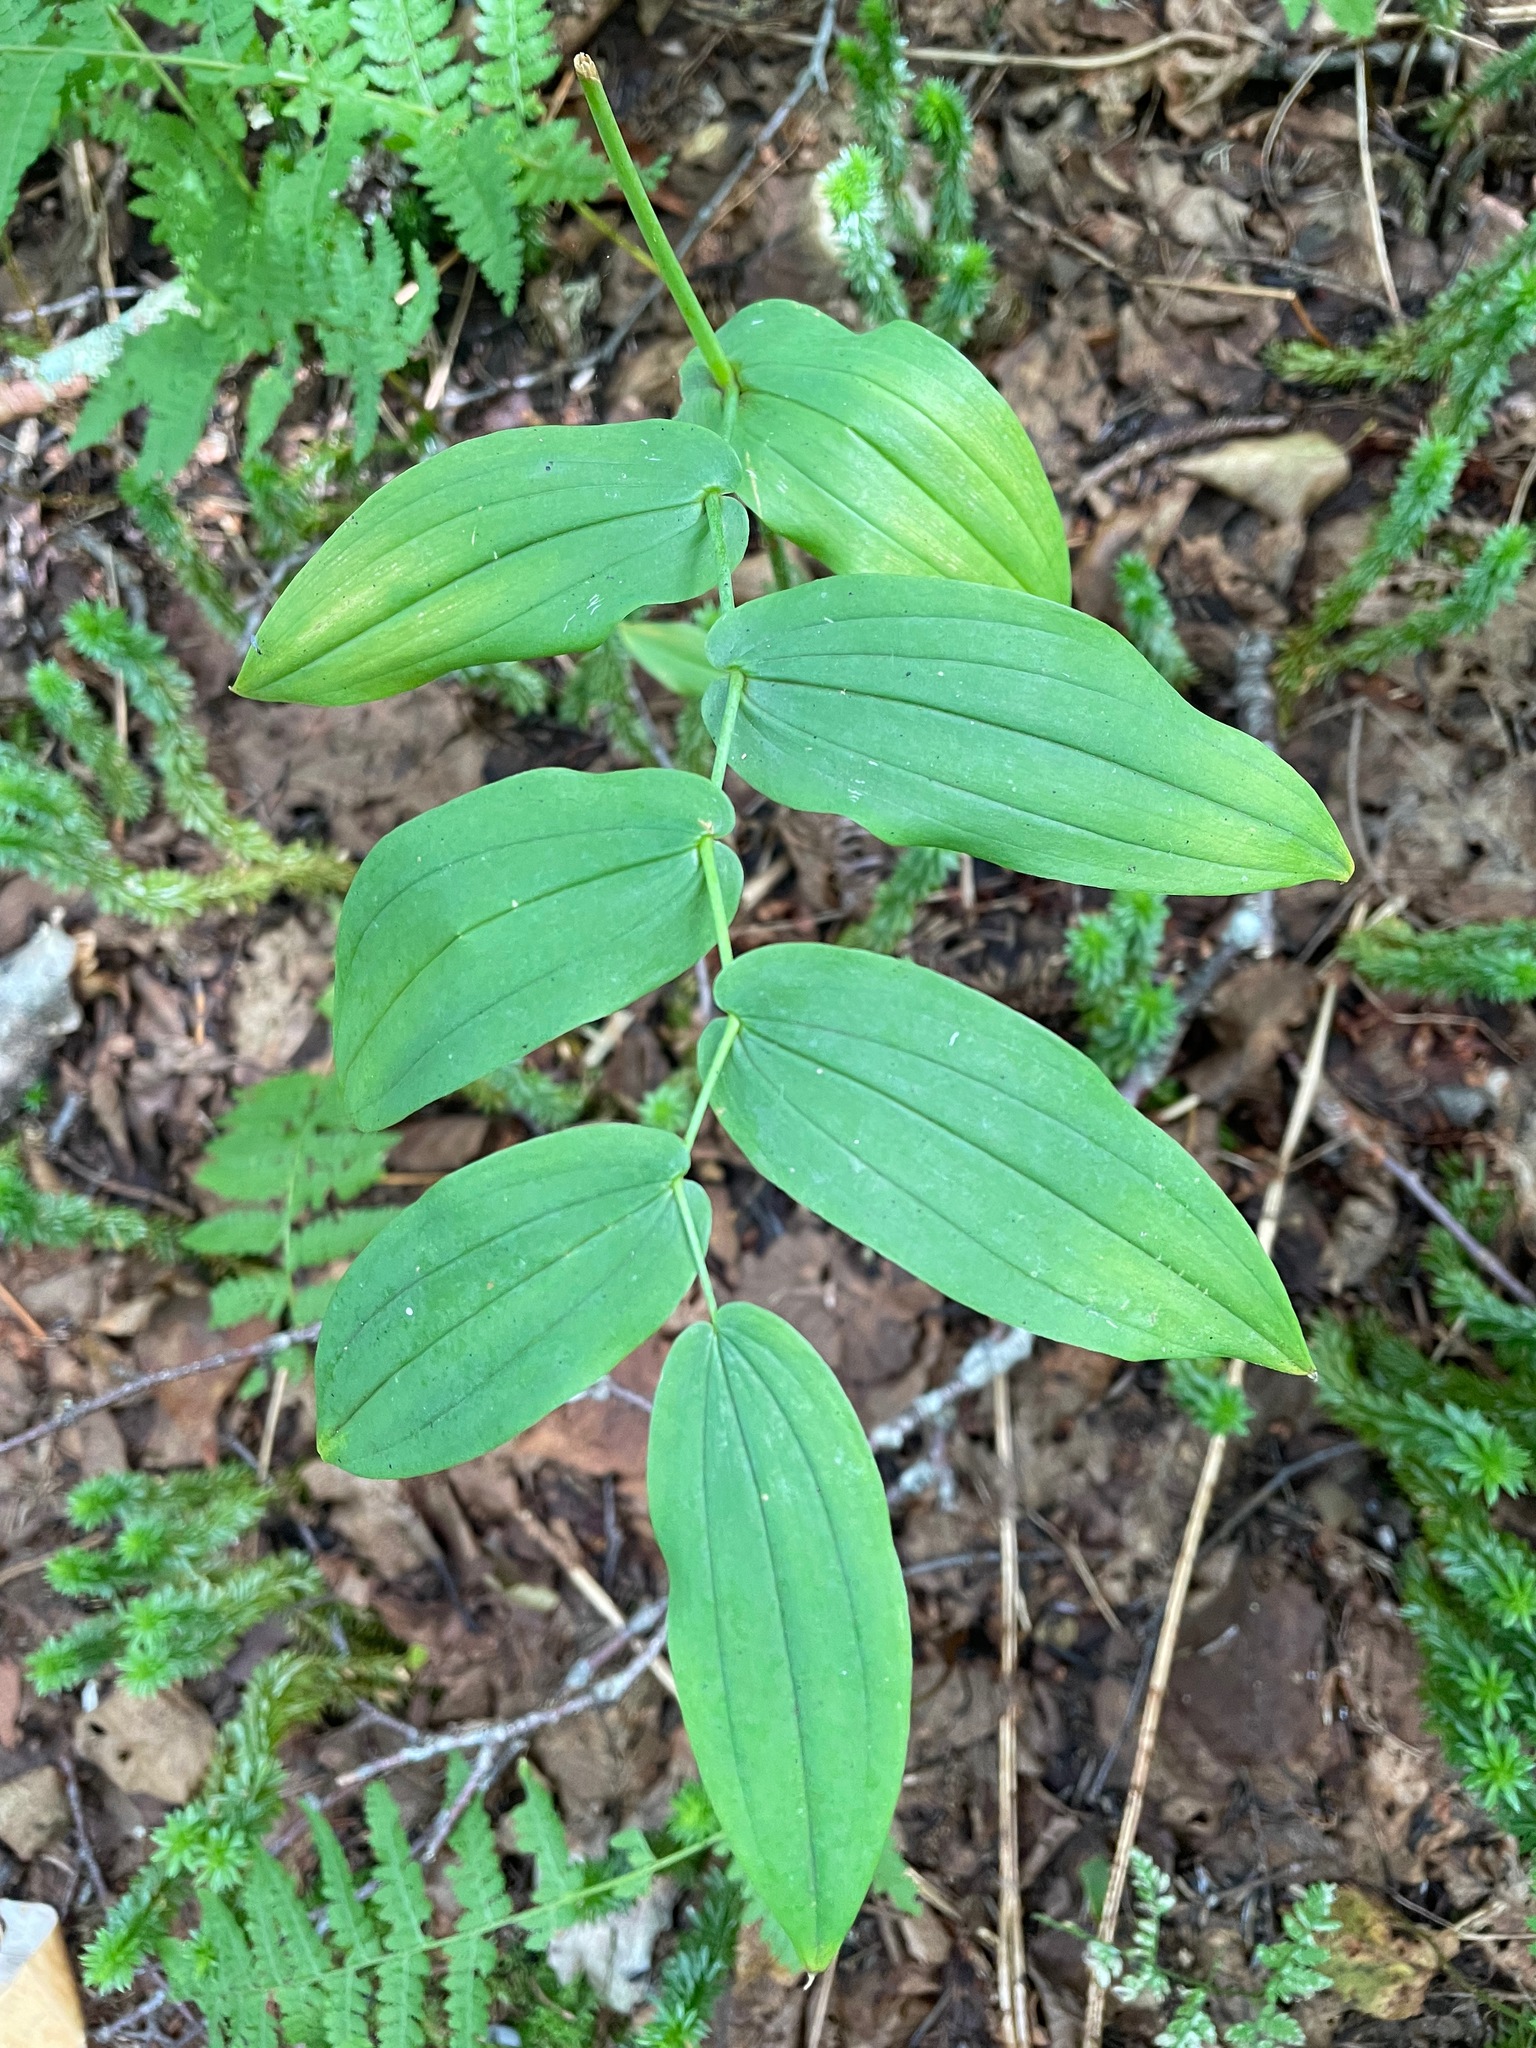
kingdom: Plantae
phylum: Tracheophyta
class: Liliopsida
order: Liliales
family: Liliaceae
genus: Streptopus
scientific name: Streptopus amplexifolius
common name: Clasp twisted stalk
